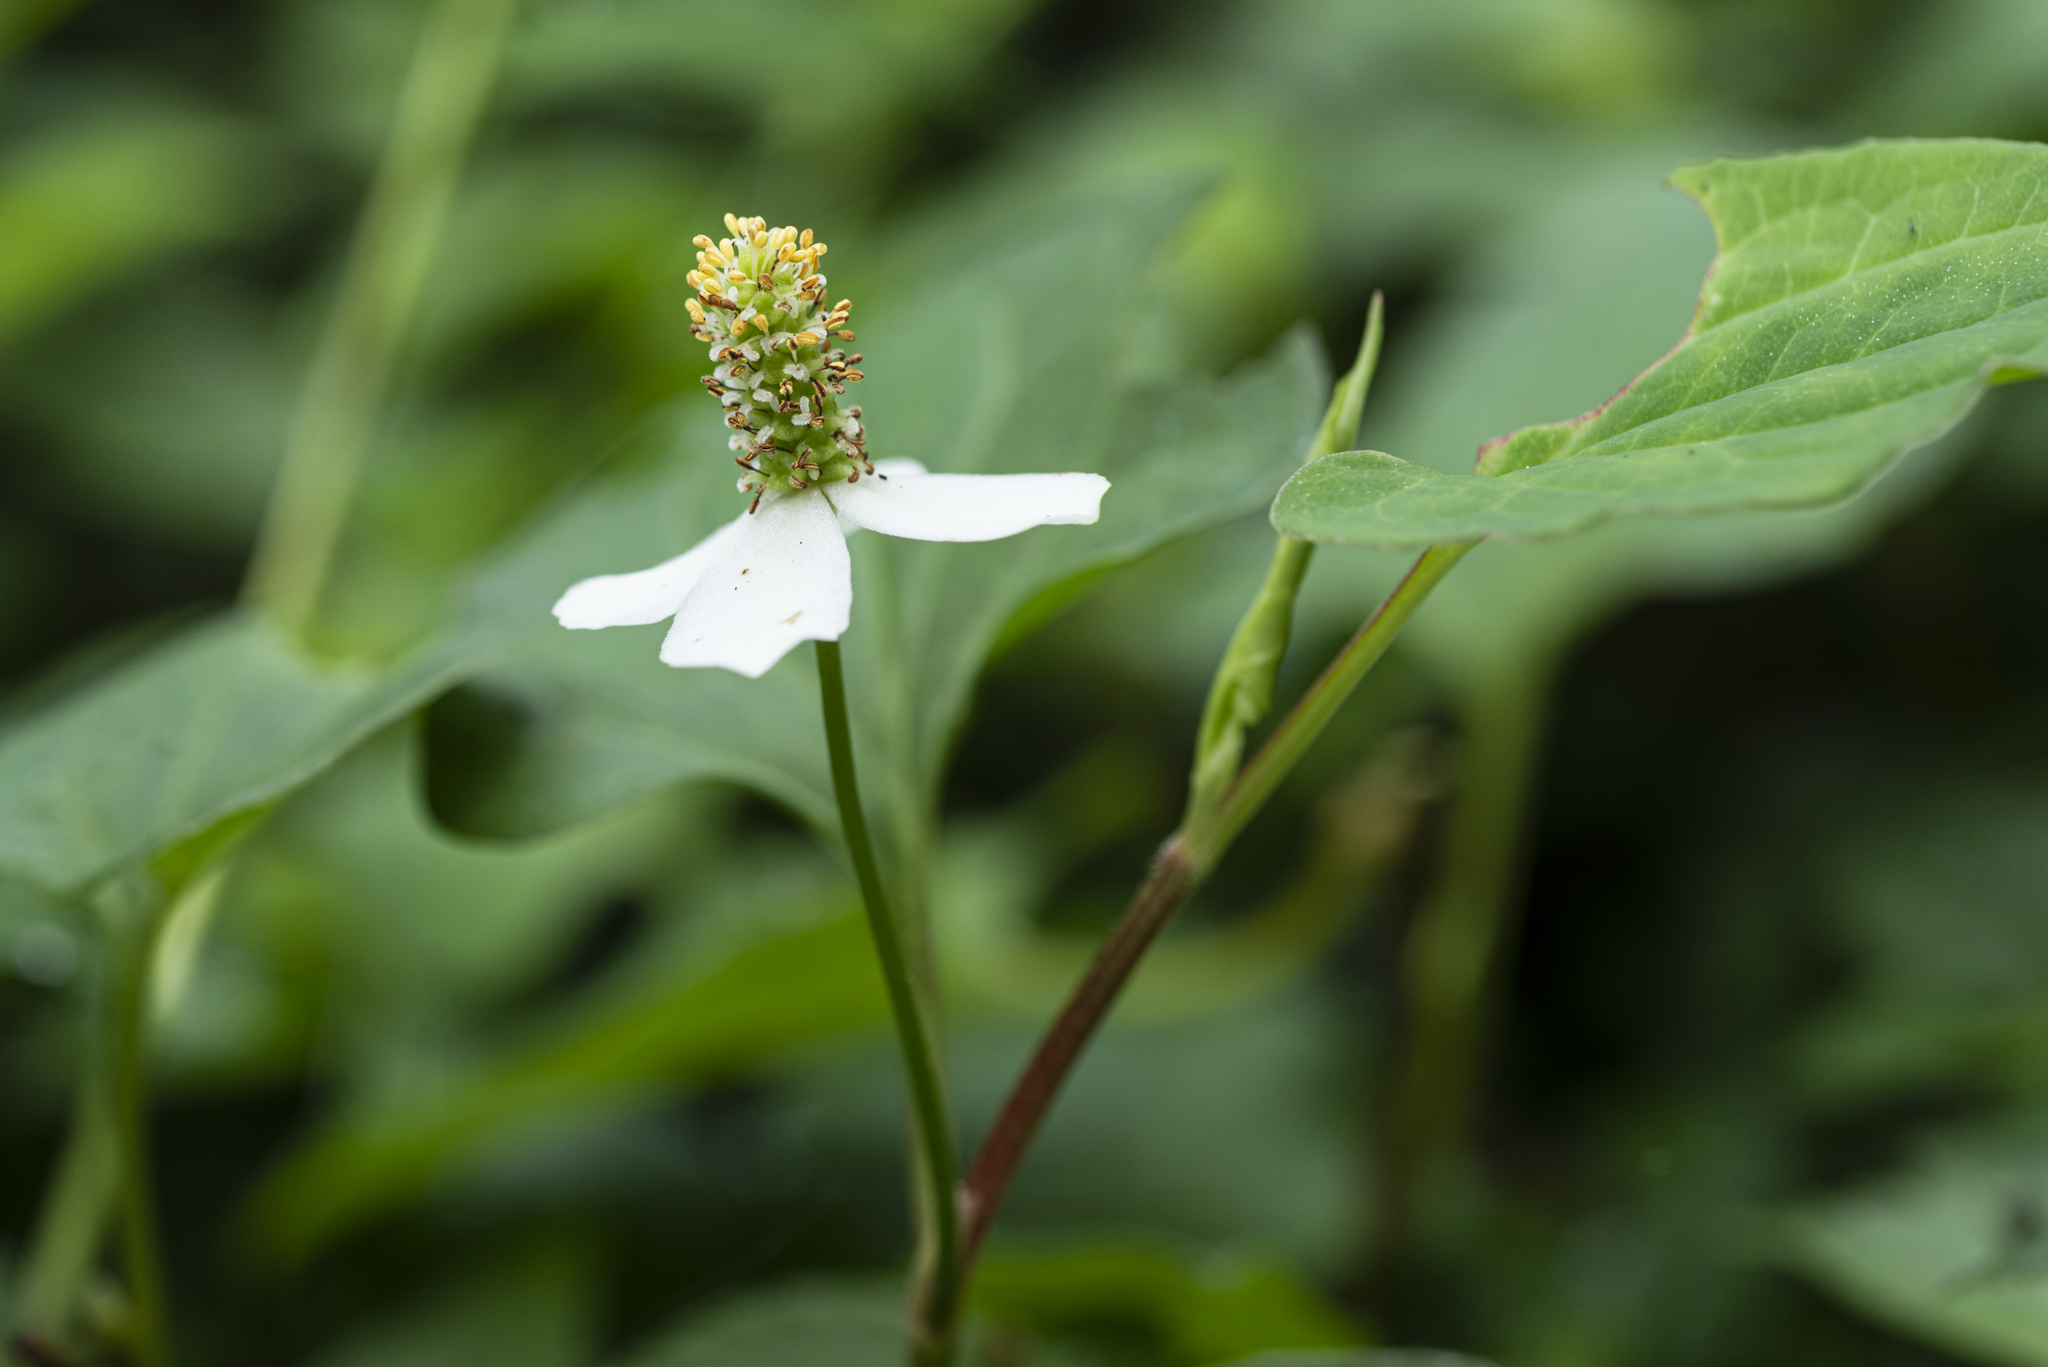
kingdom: Plantae
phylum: Tracheophyta
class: Magnoliopsida
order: Piperales
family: Saururaceae
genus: Houttuynia
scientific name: Houttuynia cordata
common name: Chameleon
